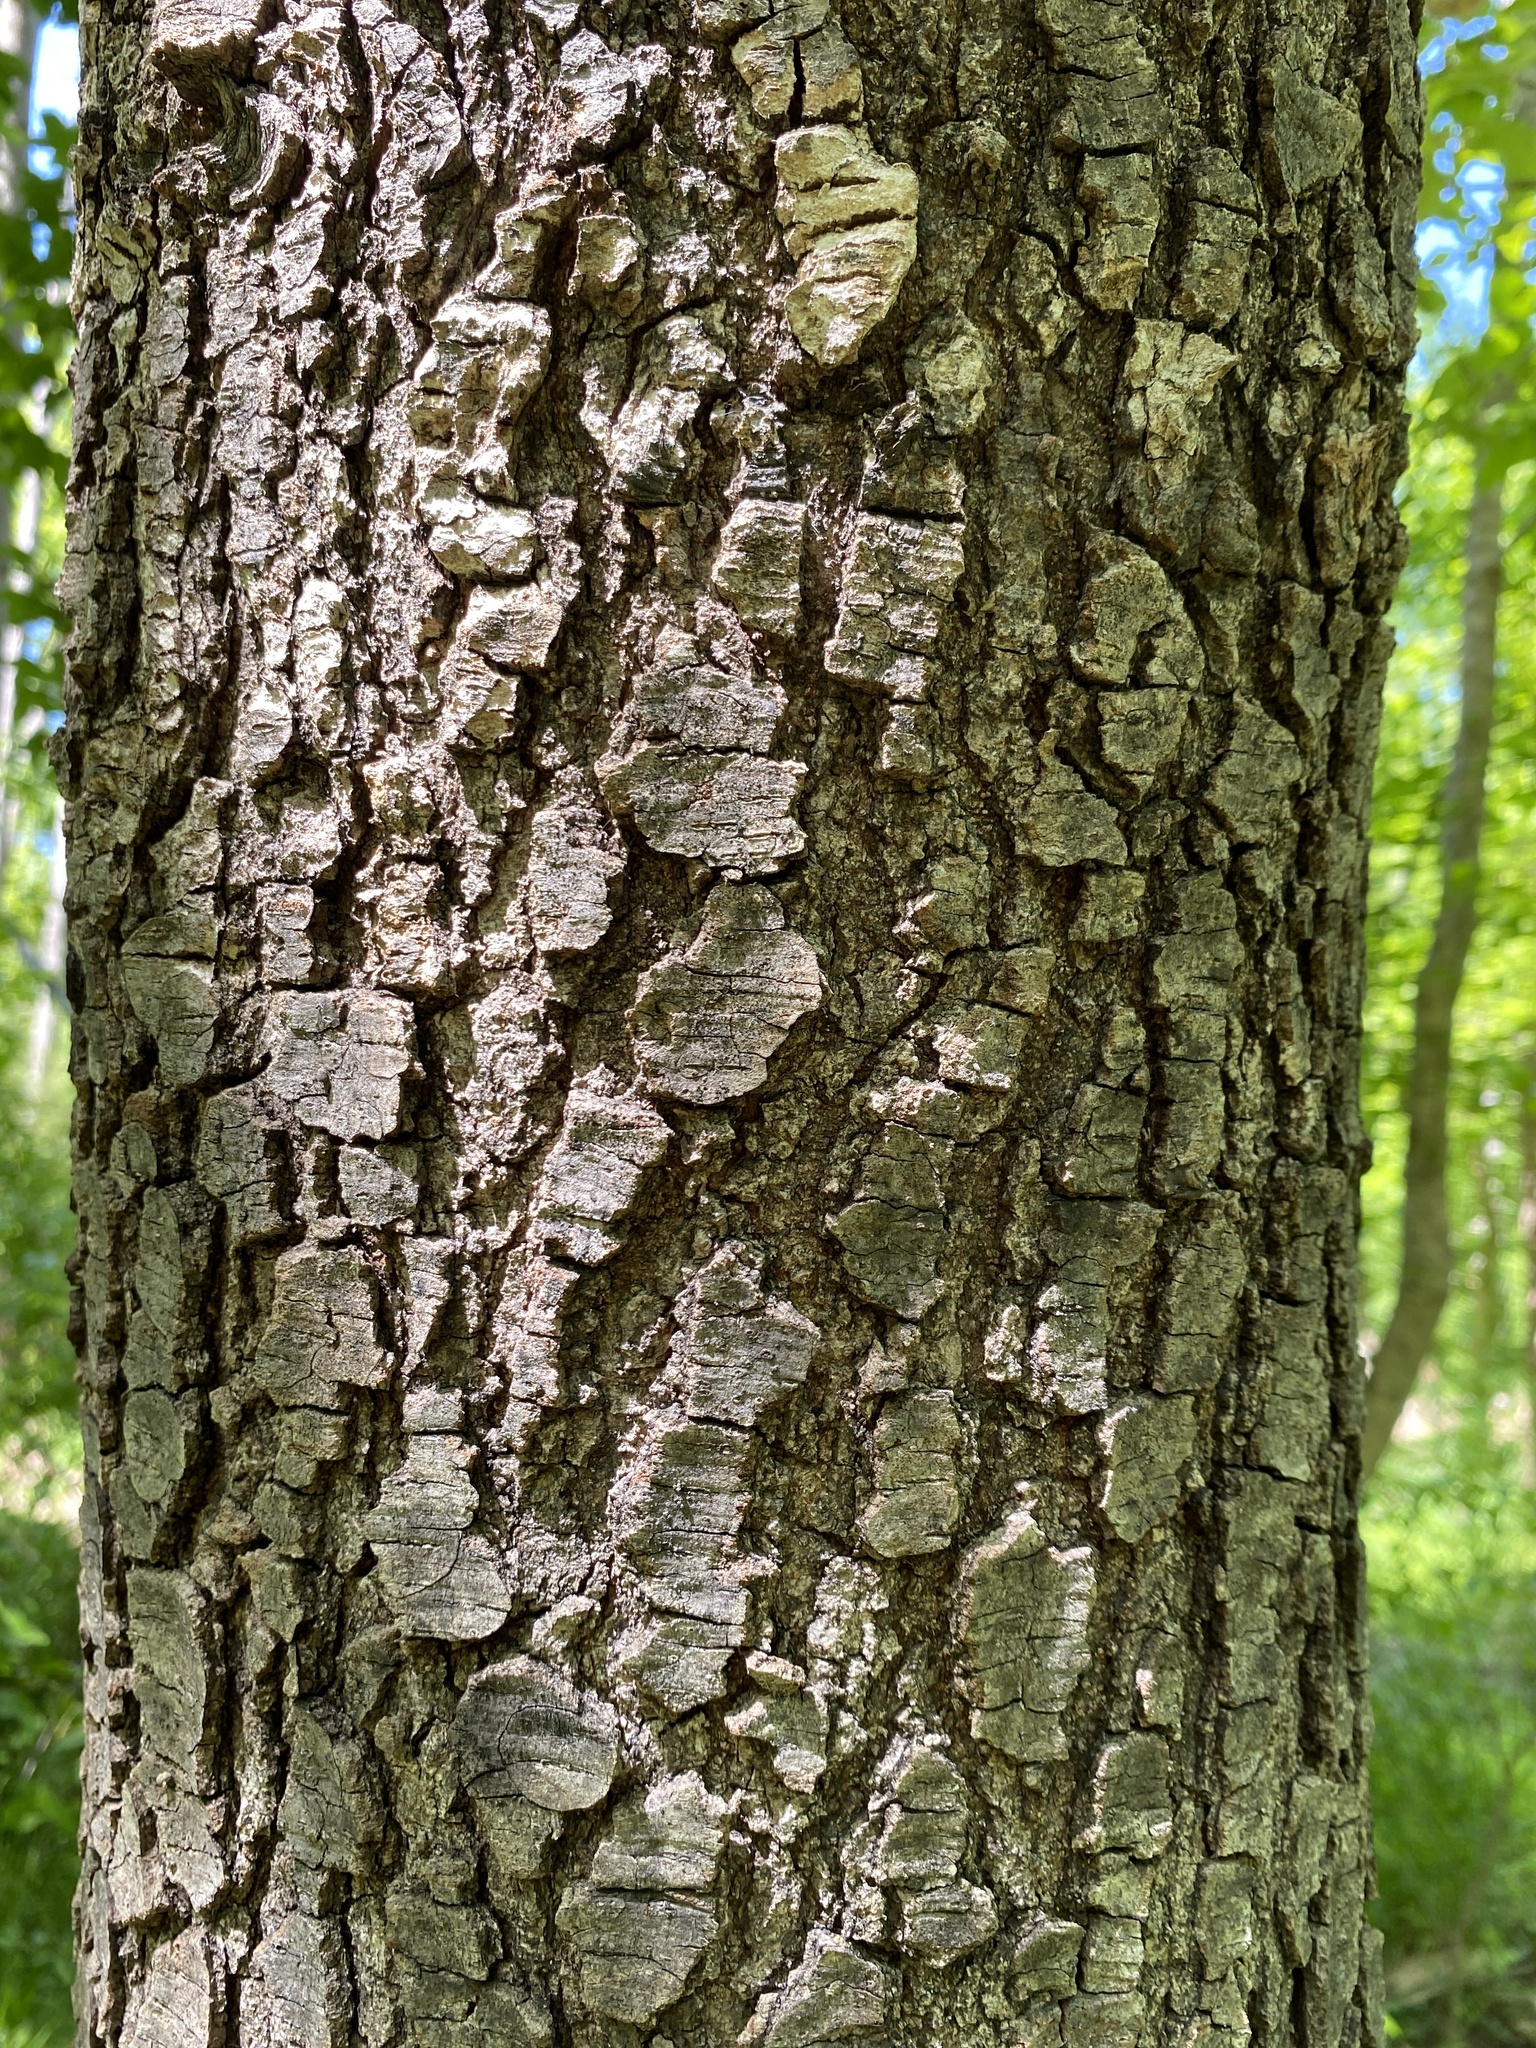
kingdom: Plantae
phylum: Tracheophyta
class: Magnoliopsida
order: Saxifragales
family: Altingiaceae
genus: Liquidambar
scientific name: Liquidambar formosana
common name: Chinese sweet gum
